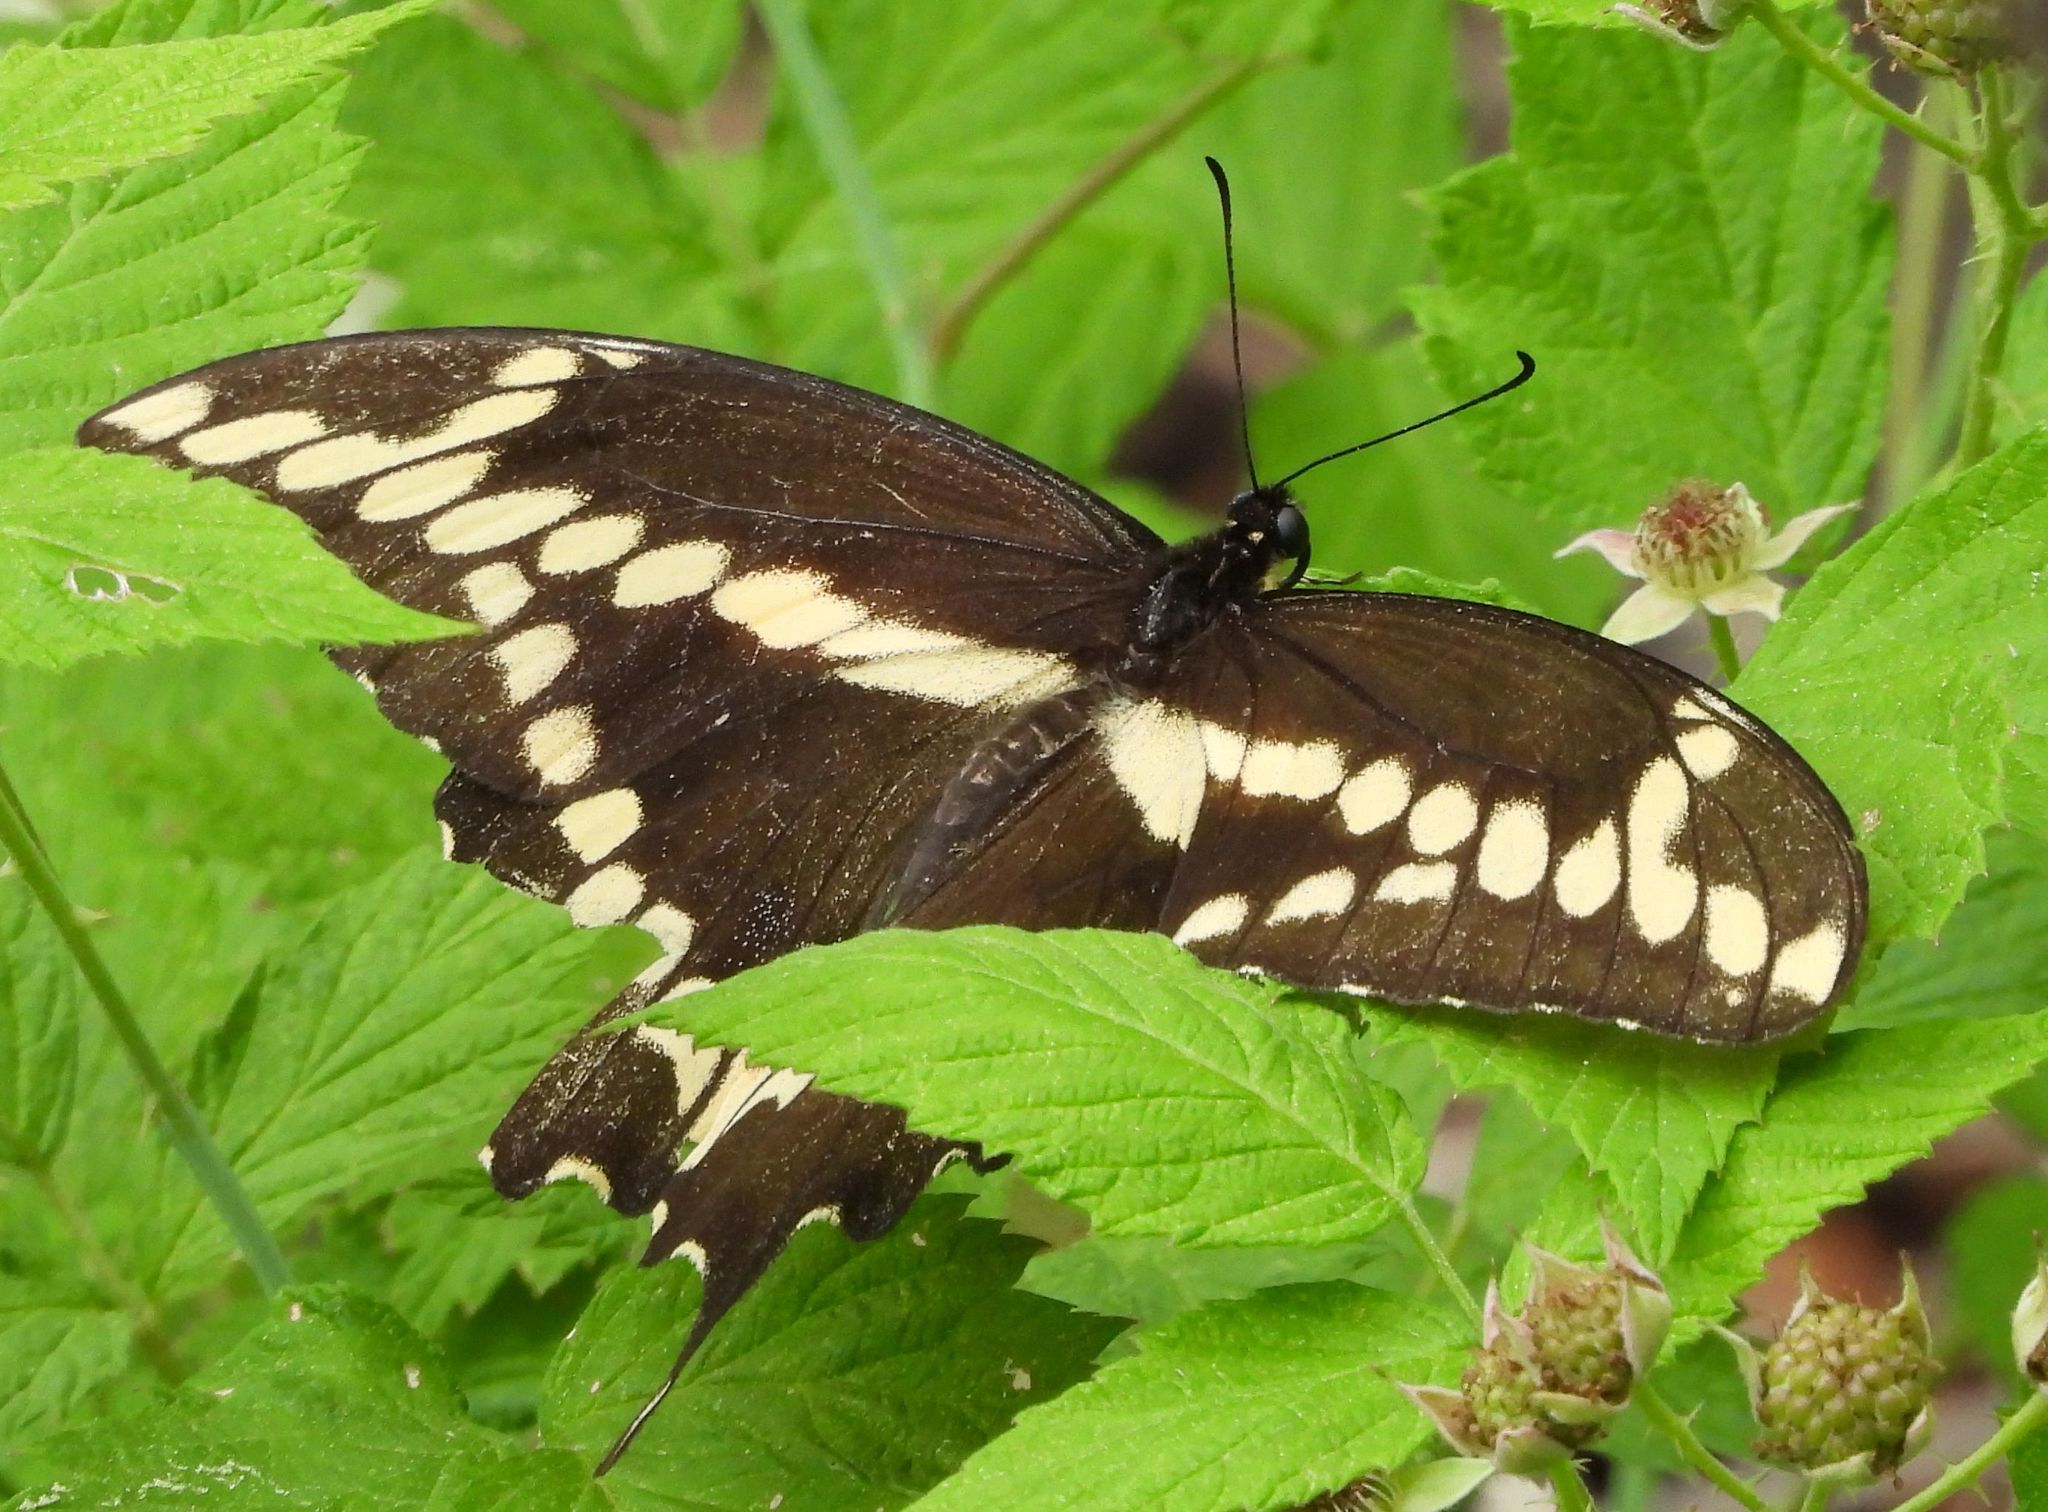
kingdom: Animalia
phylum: Arthropoda
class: Insecta
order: Lepidoptera
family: Papilionidae
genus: Papilio
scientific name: Papilio cresphontes
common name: Giant swallowtail
